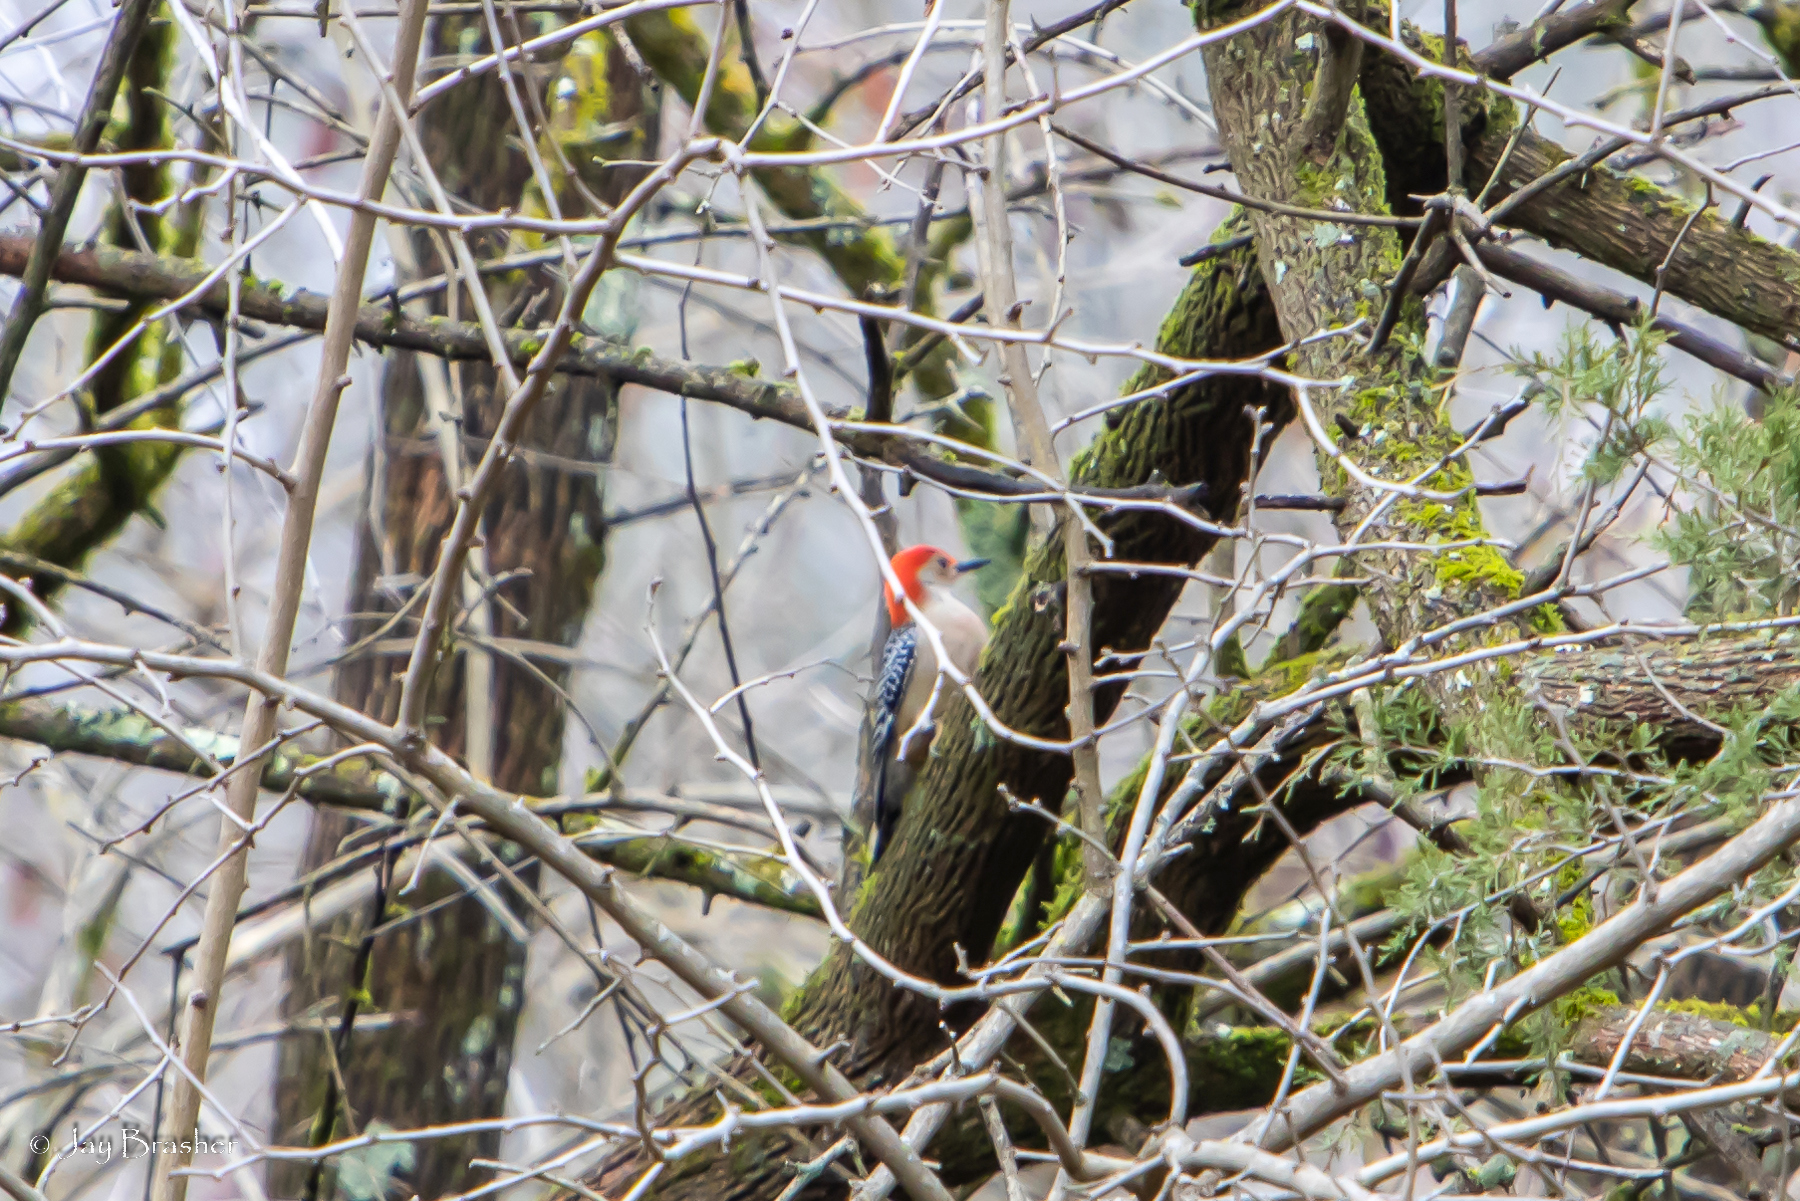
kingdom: Animalia
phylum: Chordata
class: Aves
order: Piciformes
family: Picidae
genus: Melanerpes
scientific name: Melanerpes carolinus
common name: Red-bellied woodpecker
